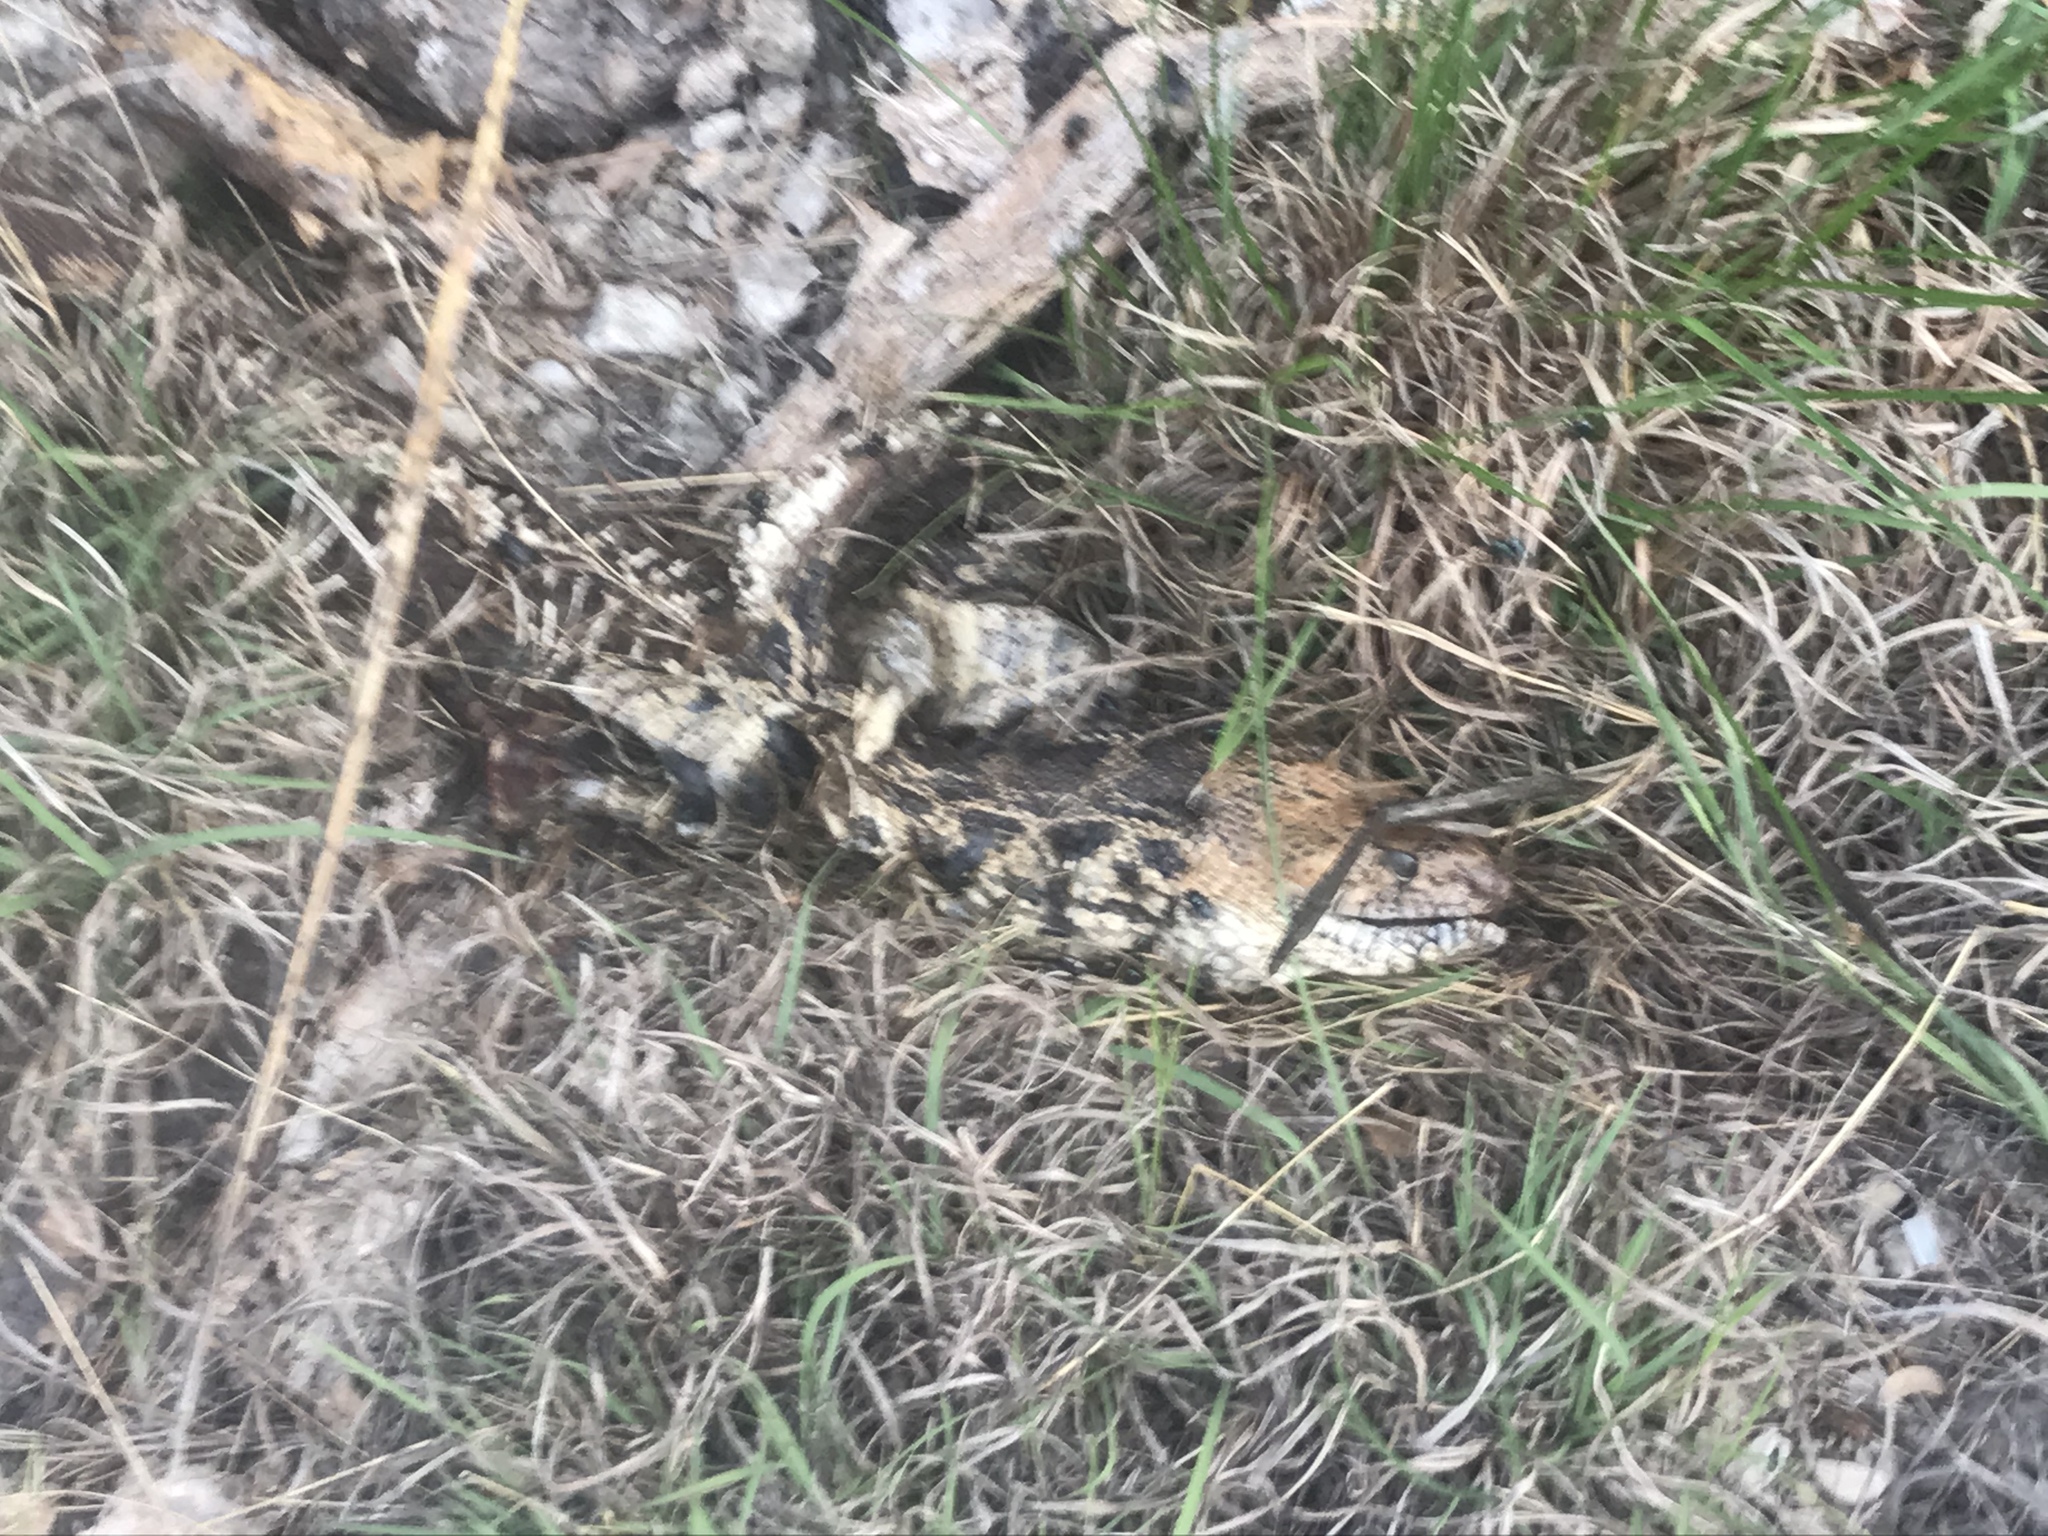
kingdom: Animalia
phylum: Chordata
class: Squamata
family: Colubridae
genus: Pituophis
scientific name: Pituophis catenifer
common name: Gopher snake
